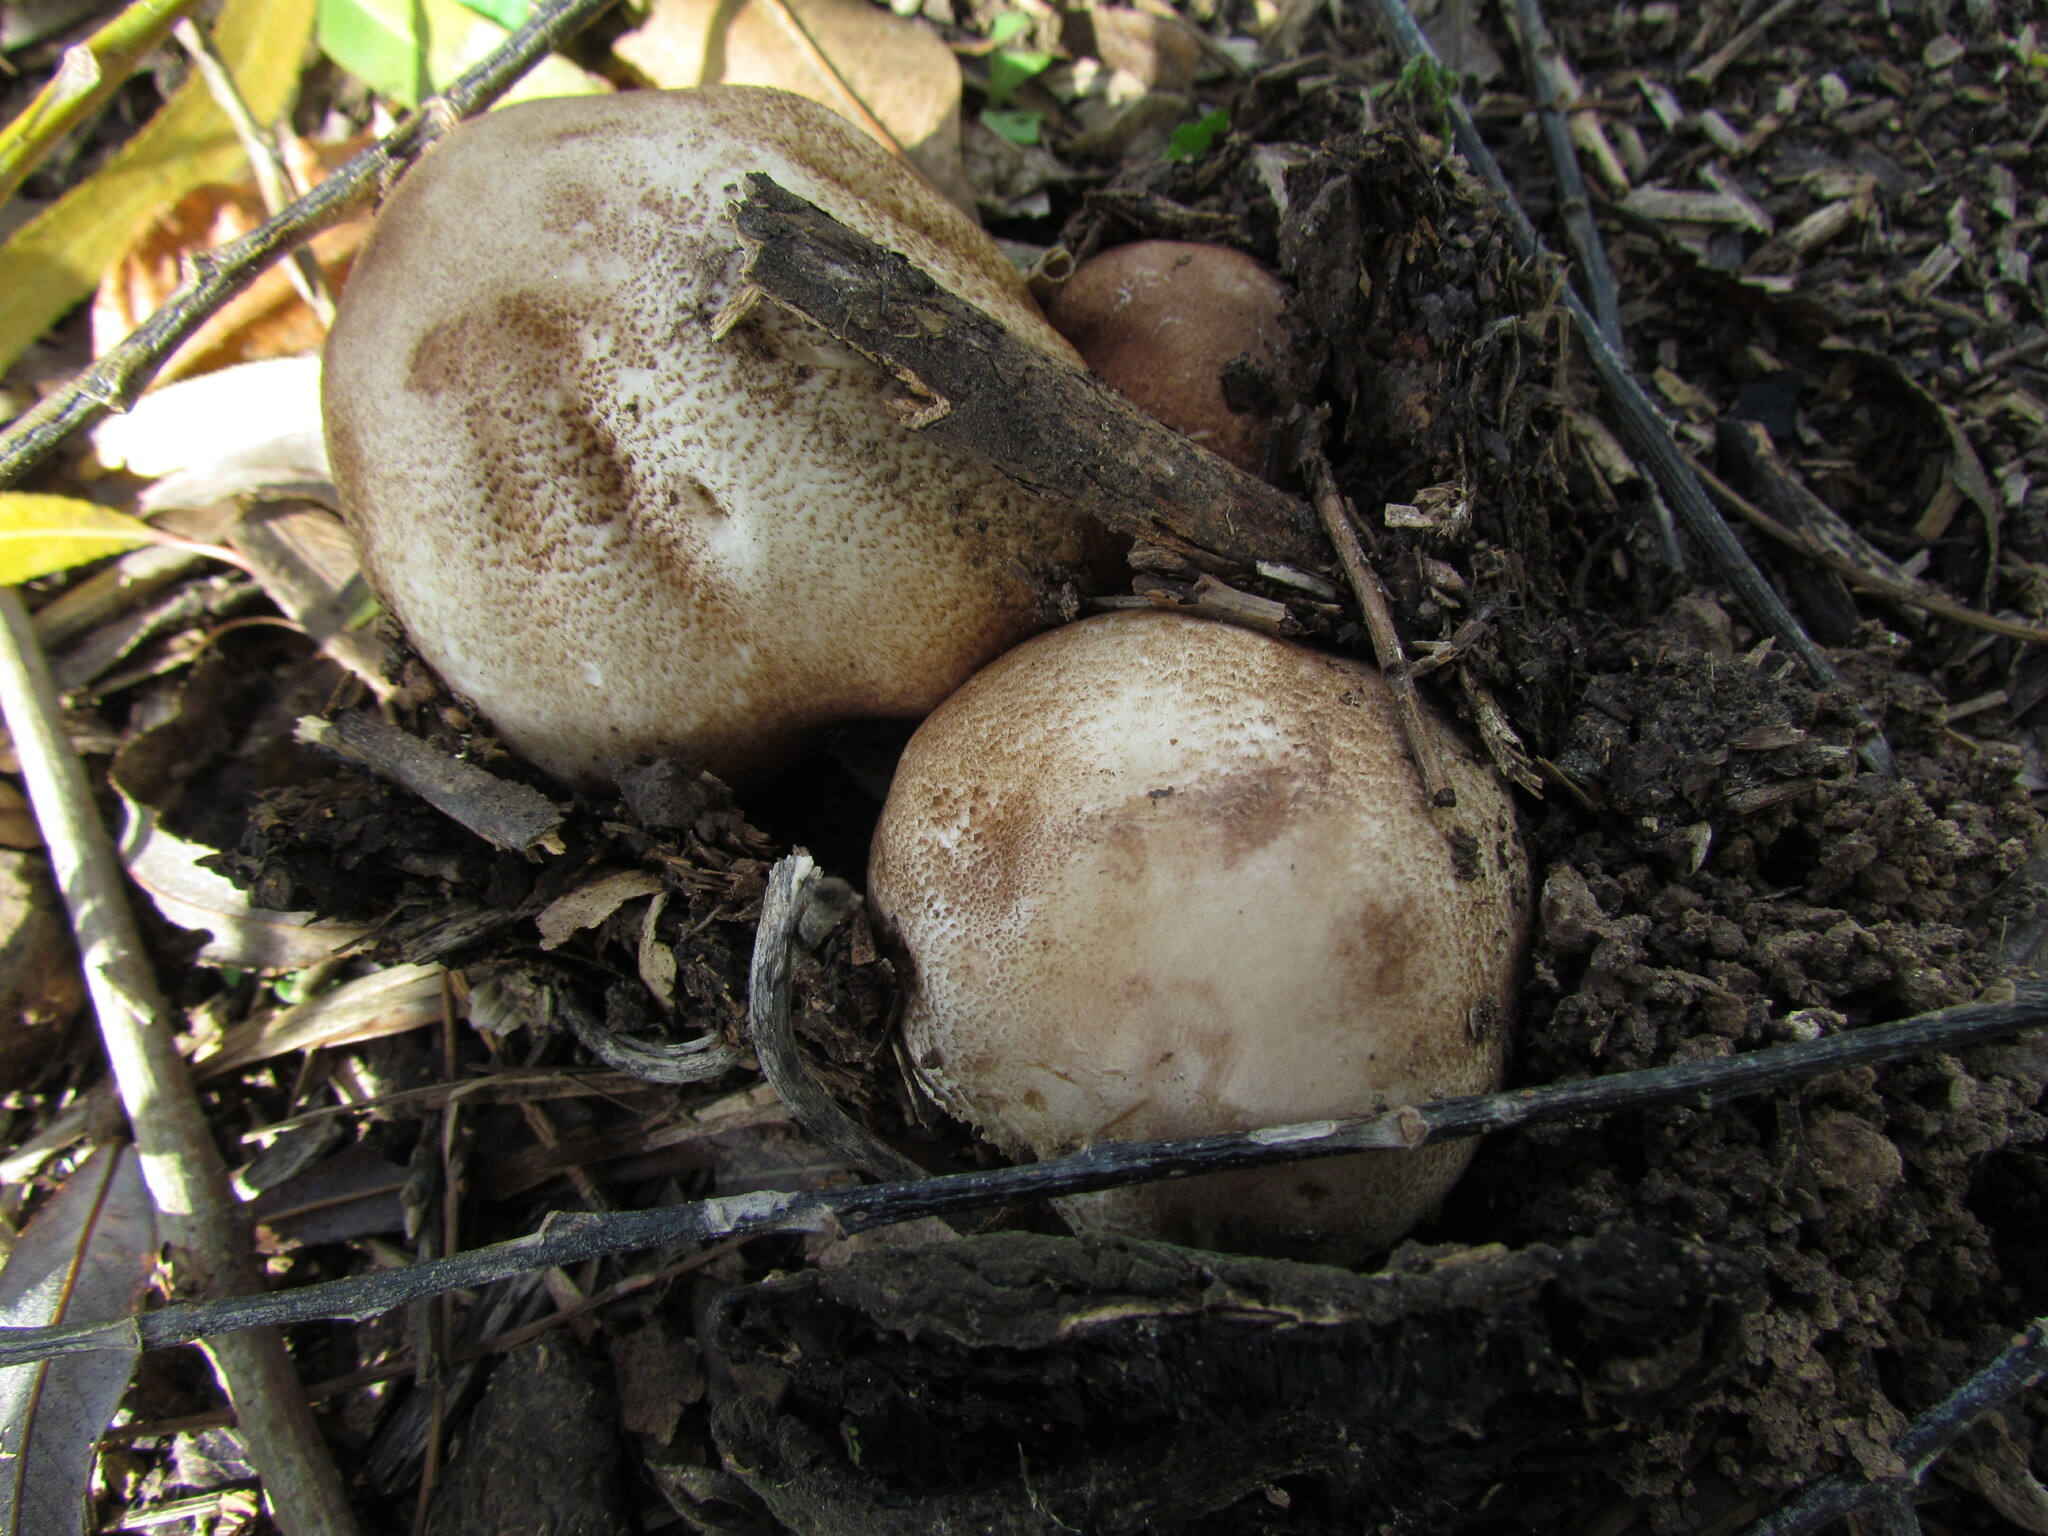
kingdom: Fungi
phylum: Basidiomycota
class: Agaricomycetes
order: Agaricales
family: Psathyrellaceae
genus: Coprinopsis
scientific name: Coprinopsis romagnesiana
